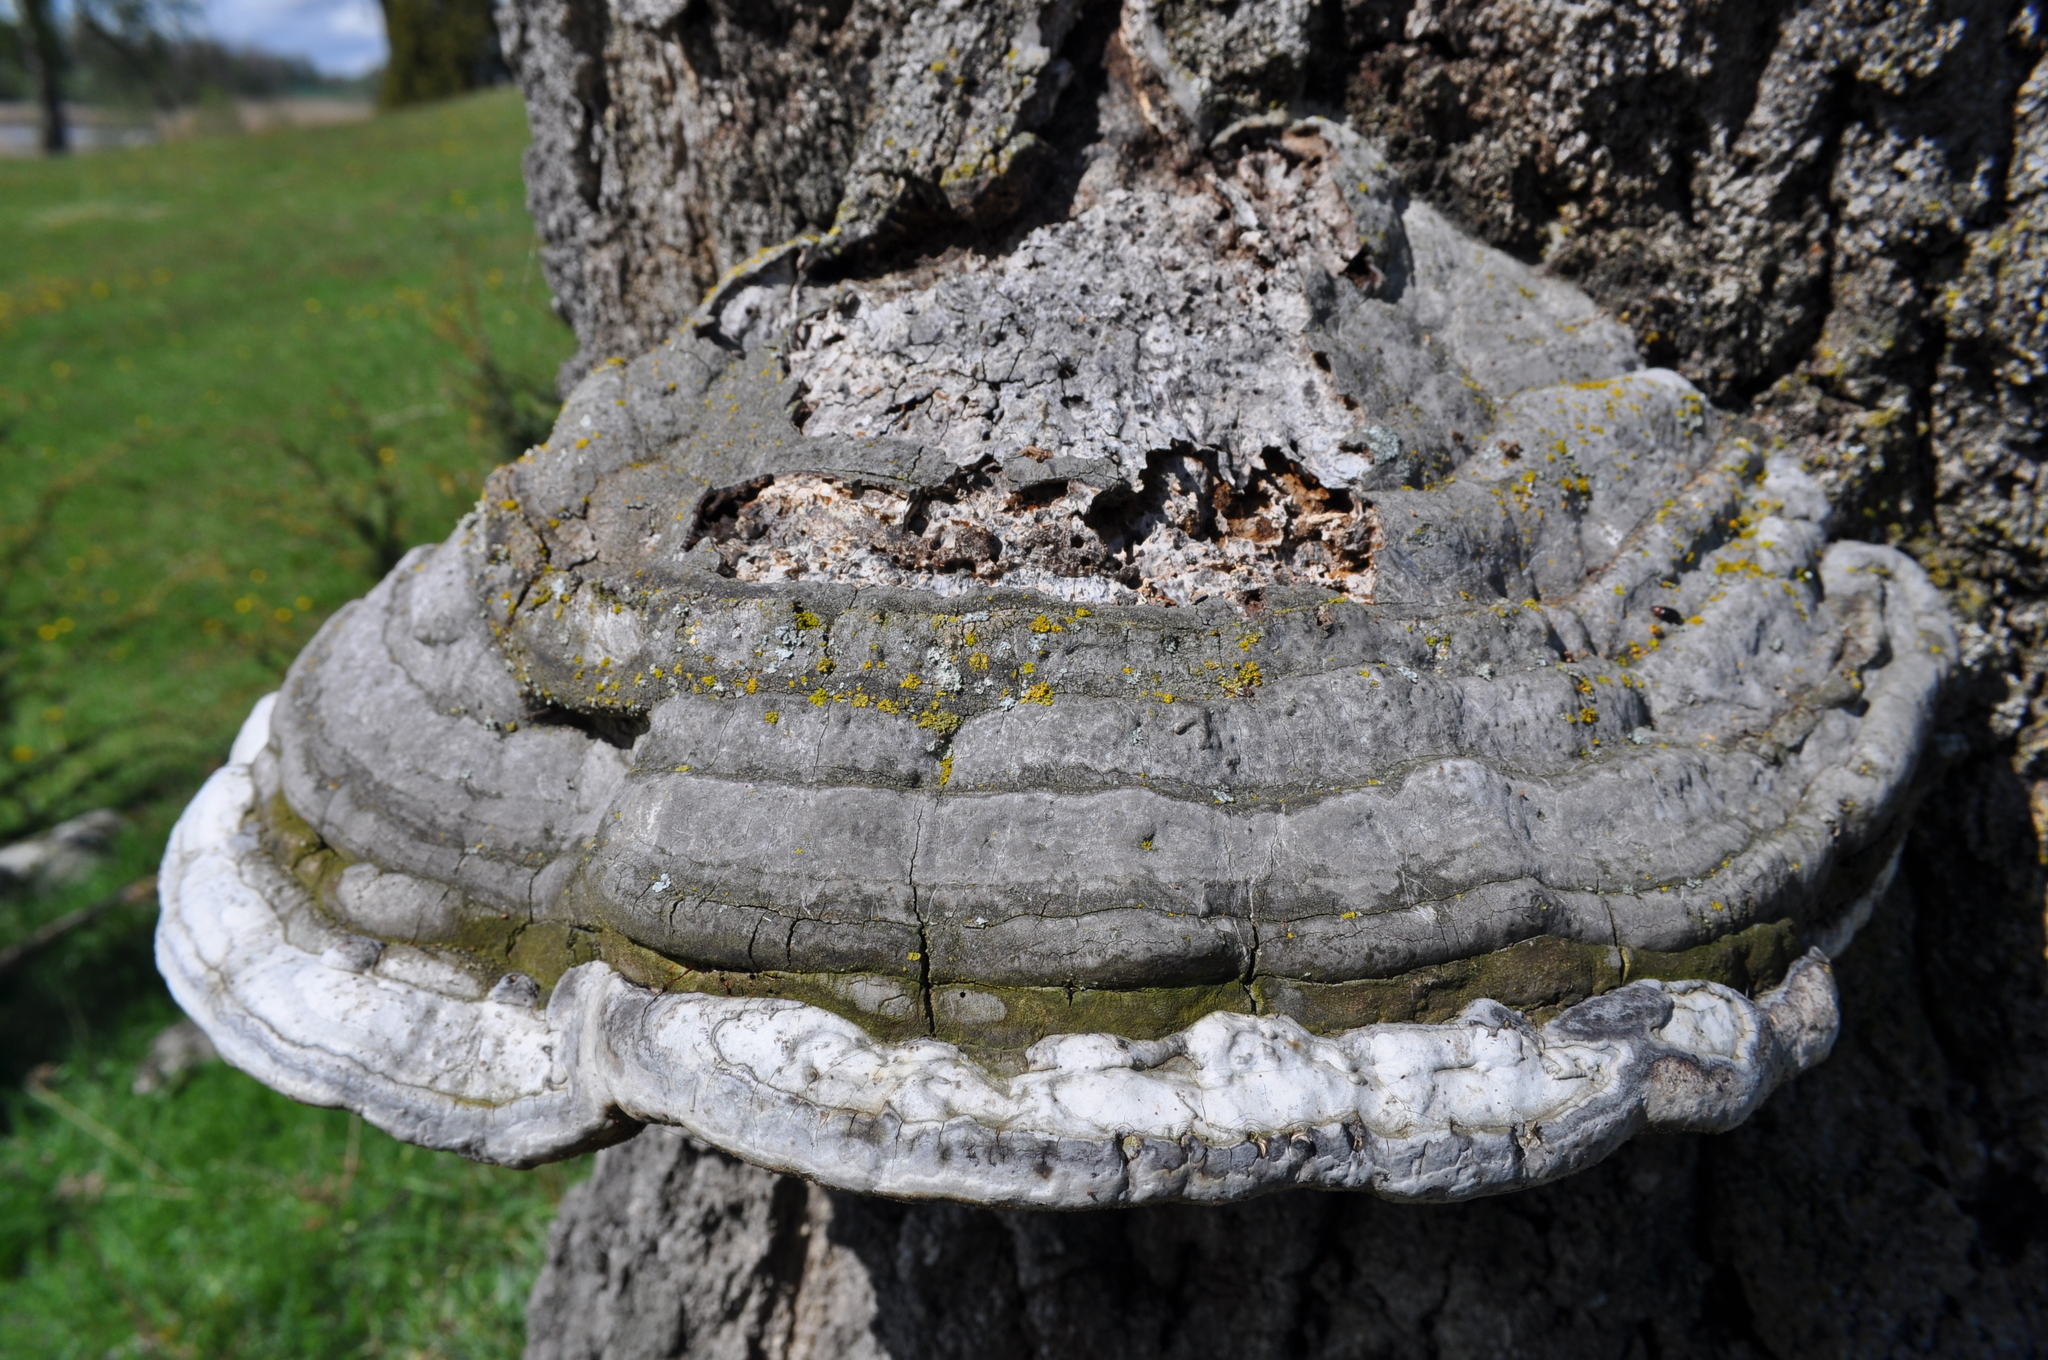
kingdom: Fungi
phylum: Basidiomycota
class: Agaricomycetes
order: Polyporales
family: Polyporaceae
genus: Fomes
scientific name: Fomes fomentarius
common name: Hoof fungus
